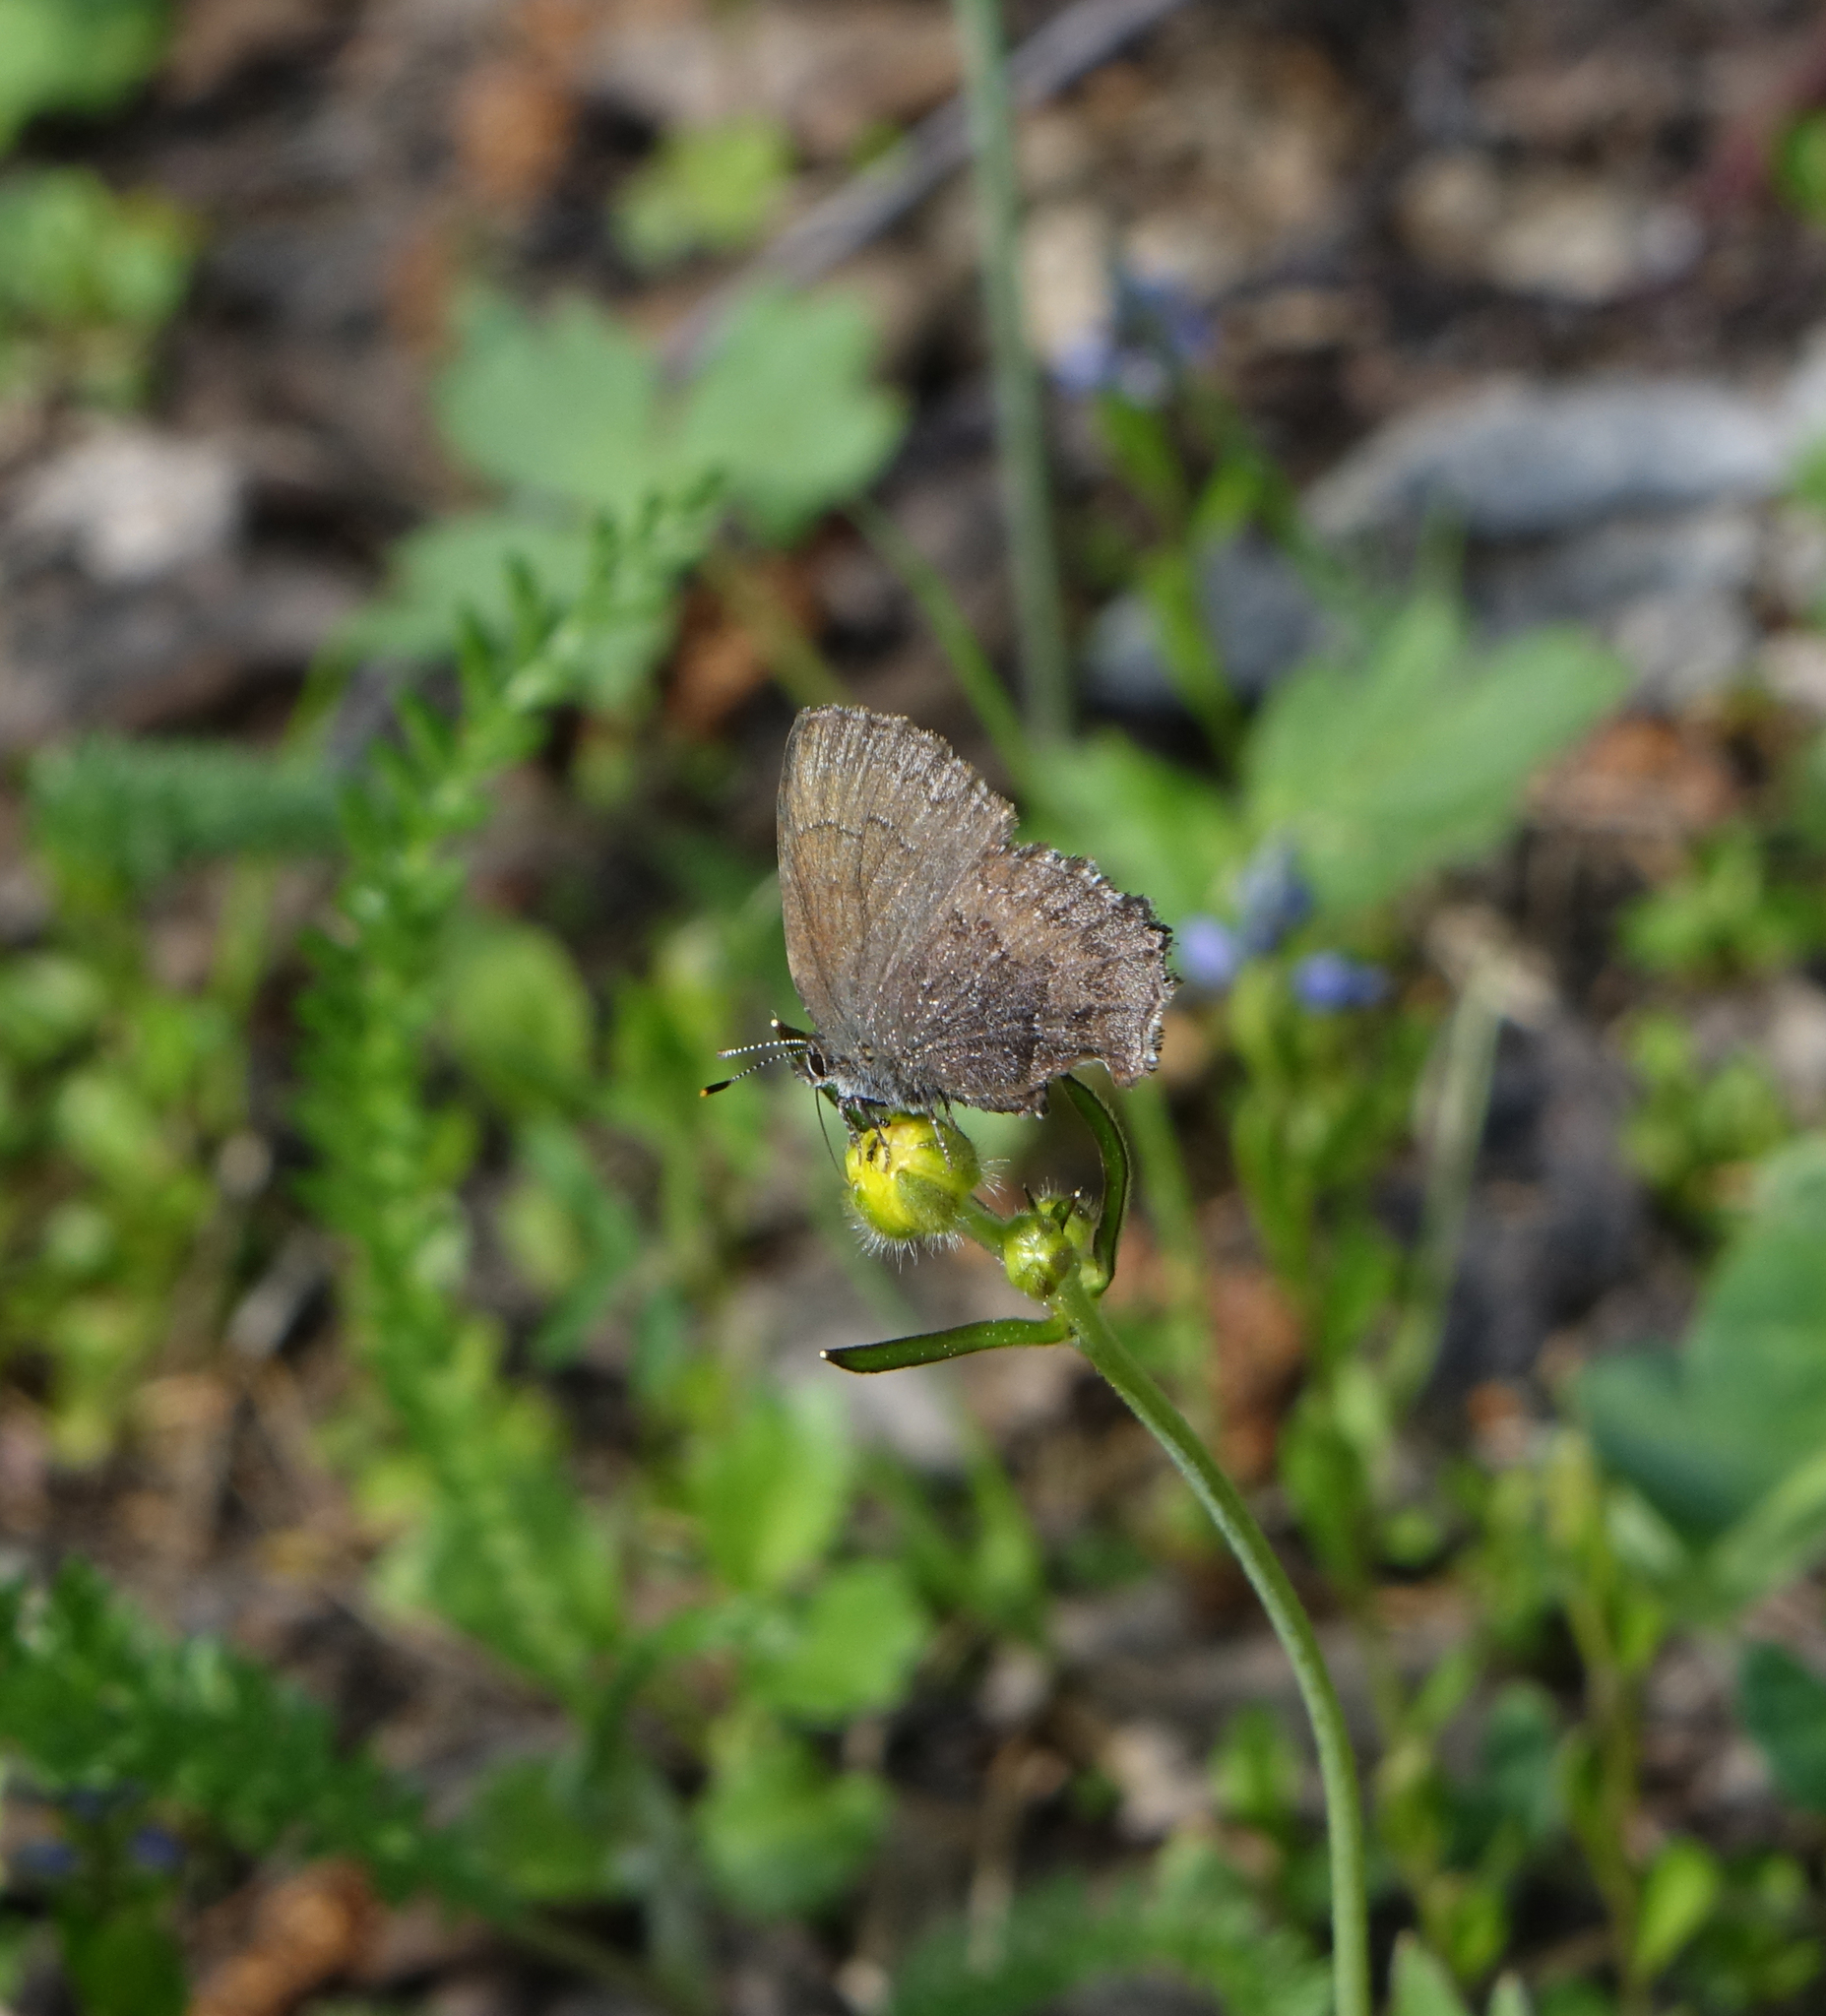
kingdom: Animalia
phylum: Arthropoda
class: Insecta
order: Lepidoptera
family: Lycaenidae
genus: Ginzia
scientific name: Ginzia Ahlbergia frivaldszkyi
